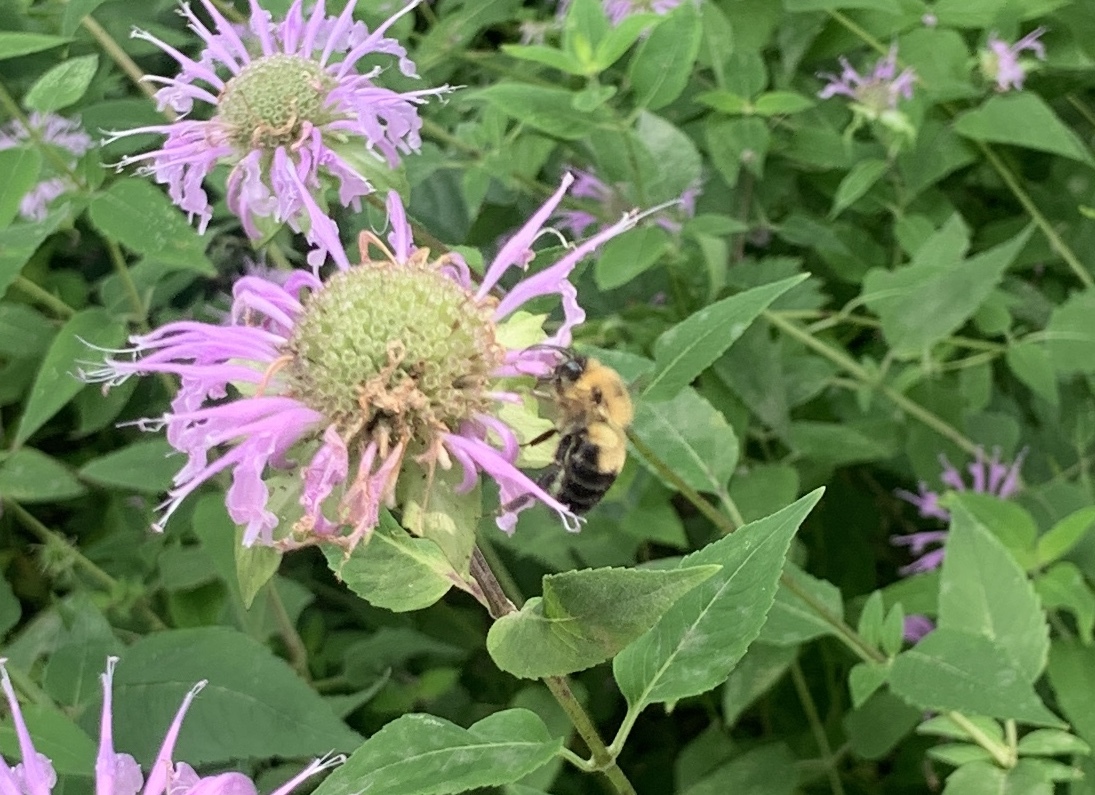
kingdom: Animalia
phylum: Arthropoda
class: Insecta
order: Hymenoptera
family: Apidae
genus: Bombus
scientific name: Bombus bimaculatus
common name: Two-spotted bumble bee
